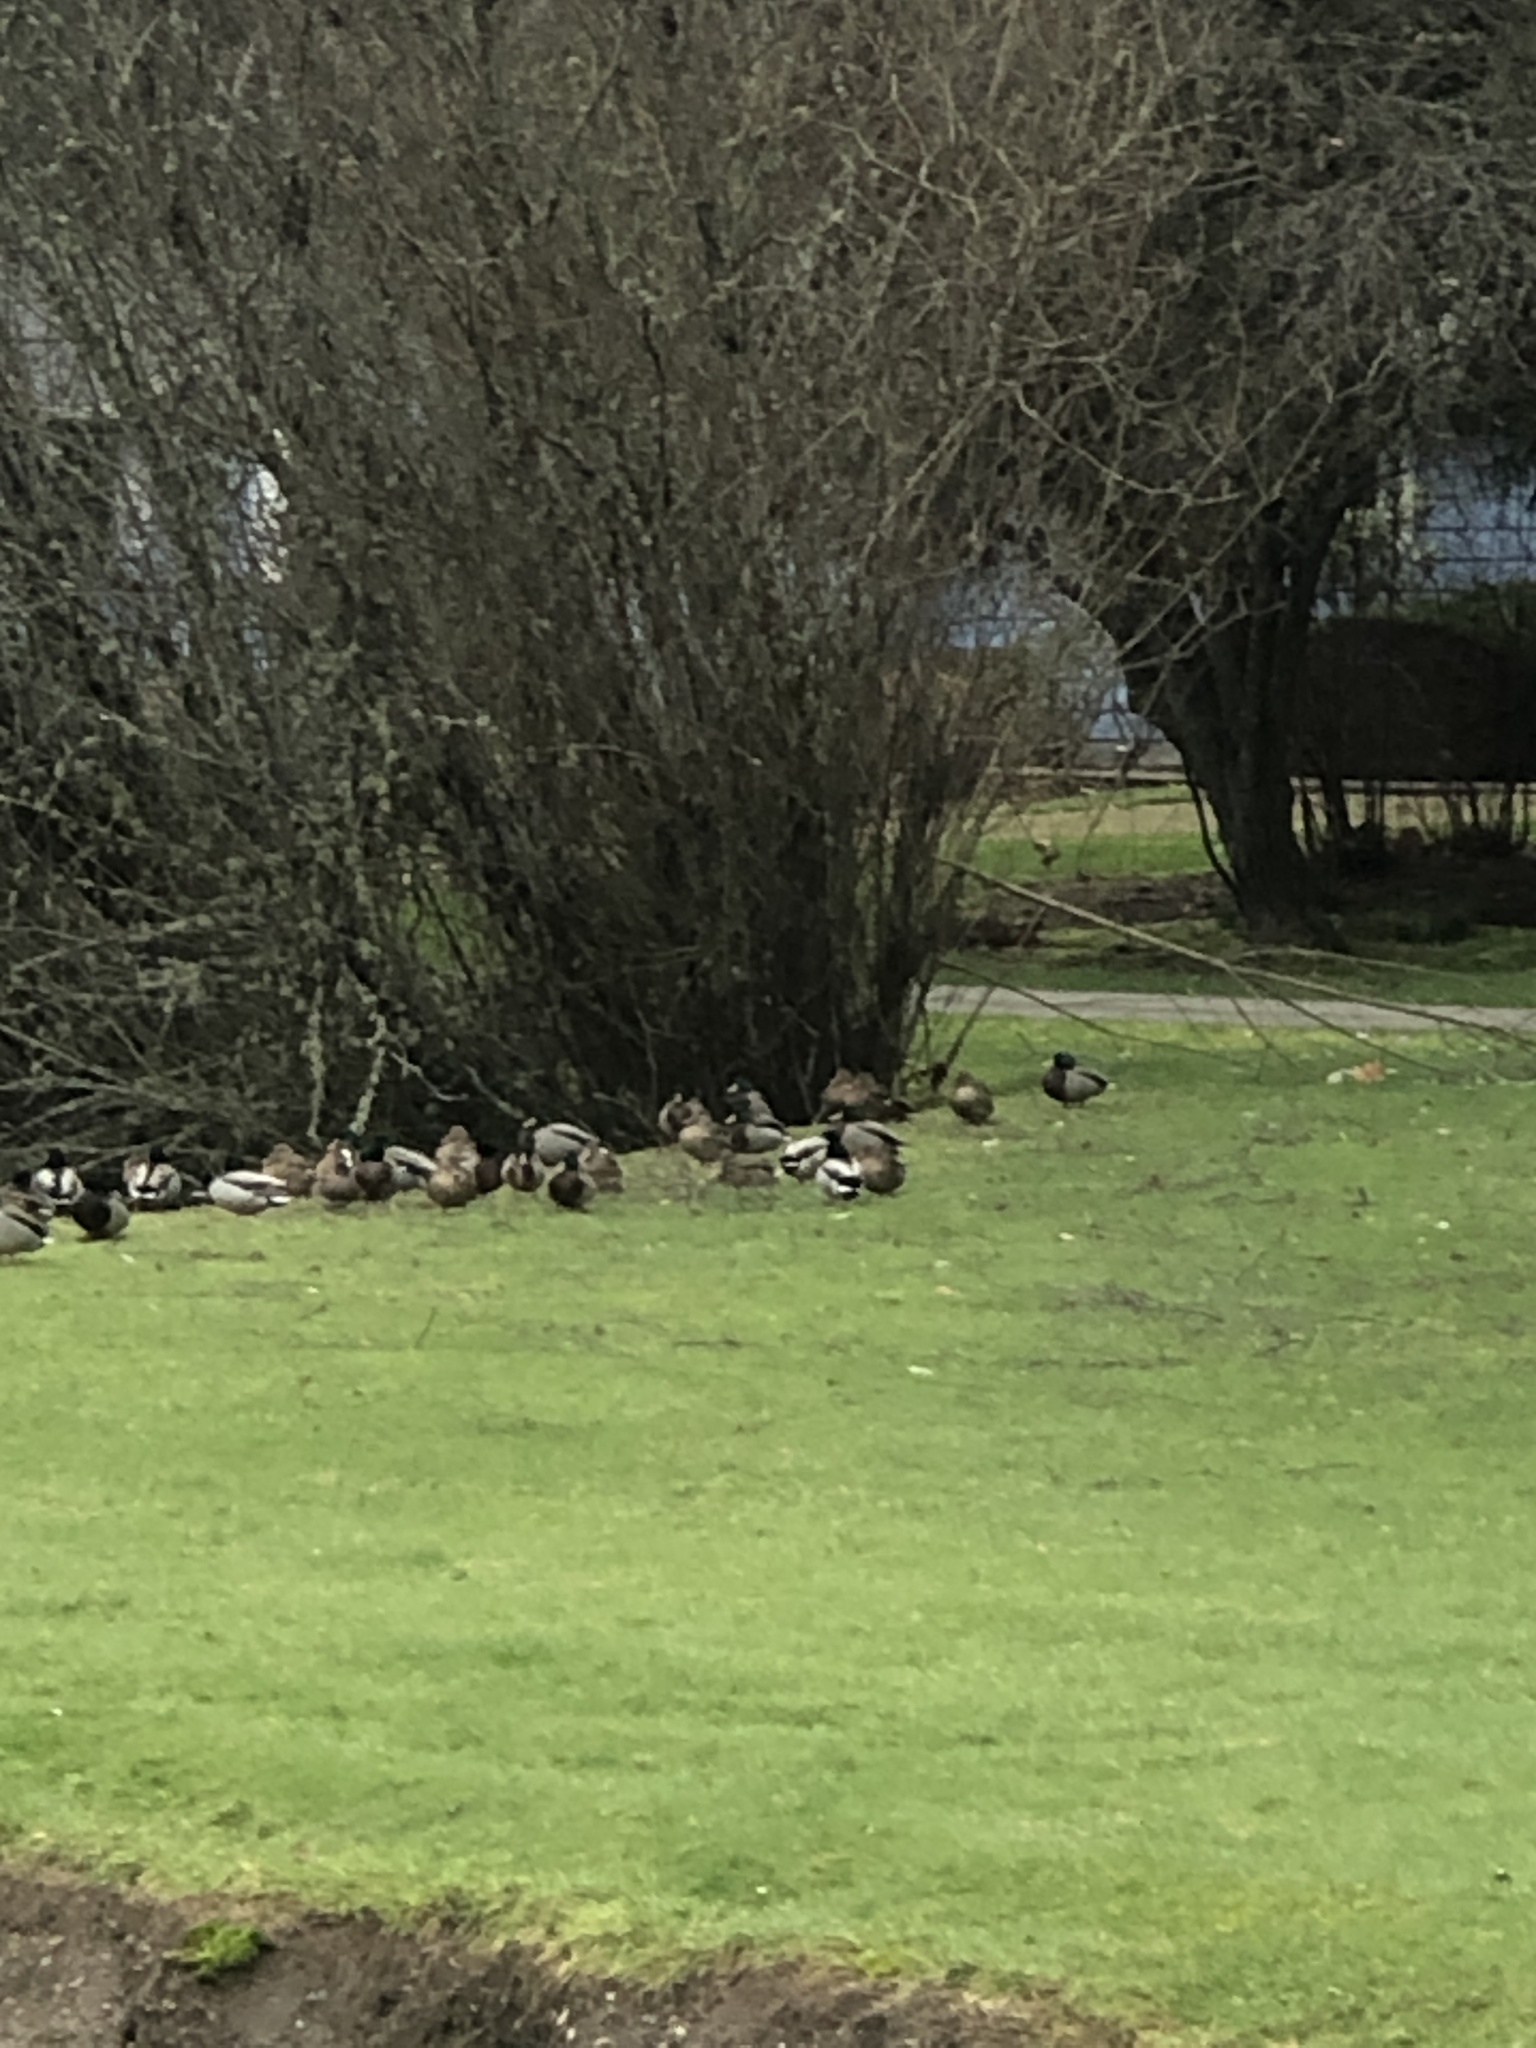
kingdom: Animalia
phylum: Chordata
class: Aves
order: Anseriformes
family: Anatidae
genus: Anas
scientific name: Anas platyrhynchos
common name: Mallard
